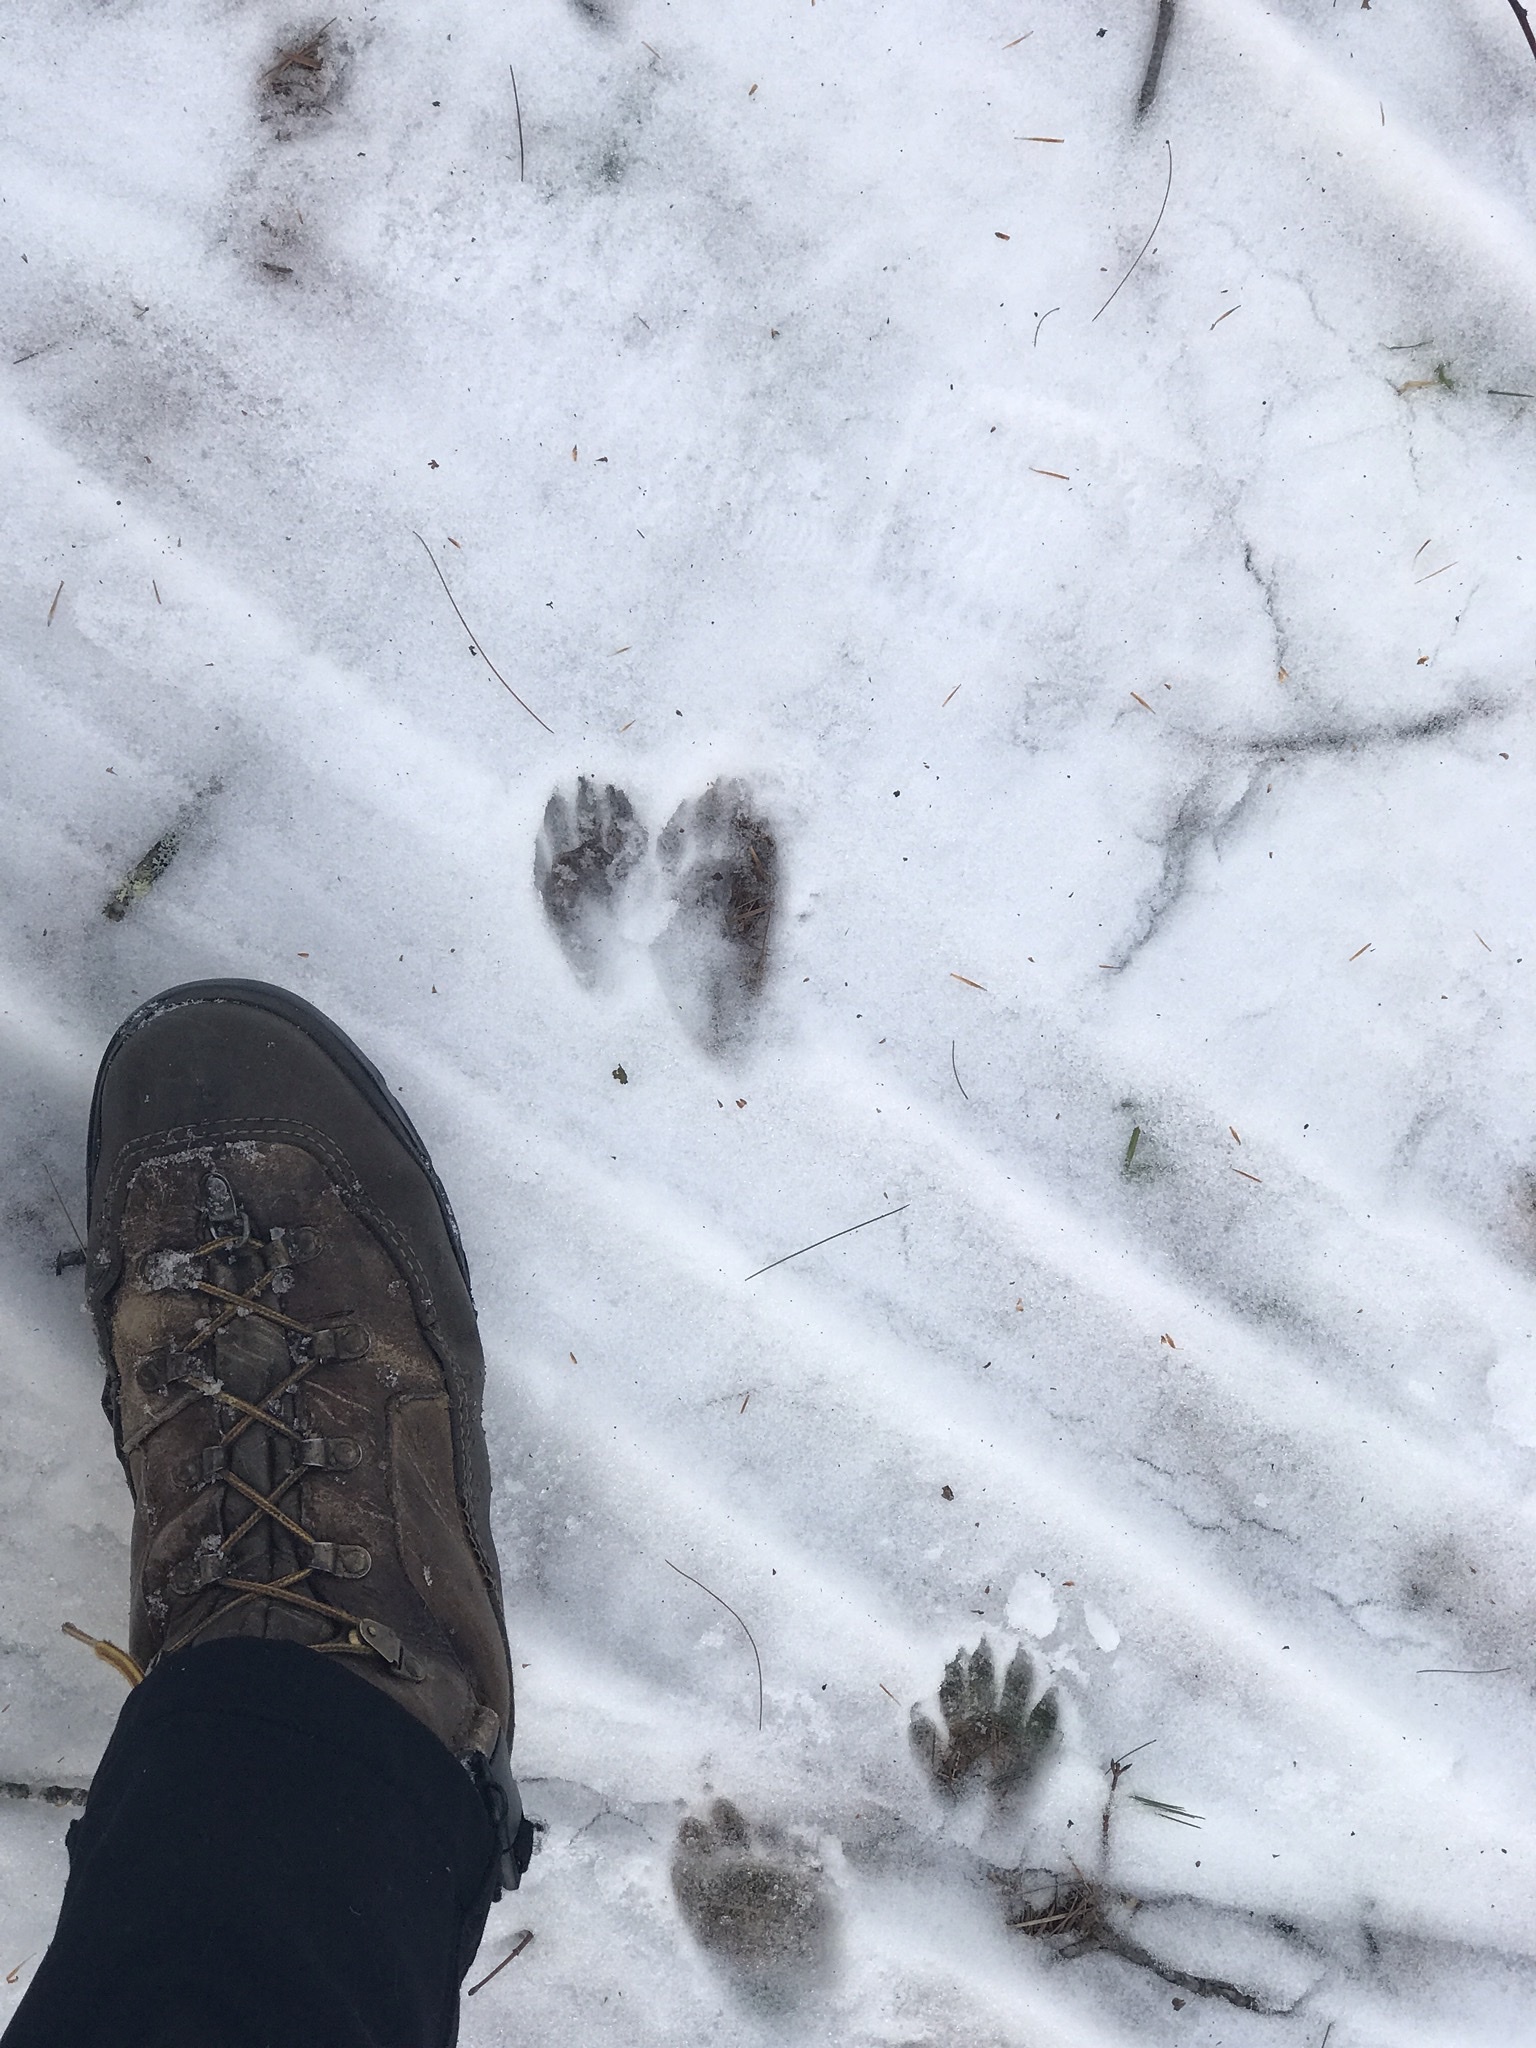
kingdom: Animalia
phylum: Chordata
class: Mammalia
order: Carnivora
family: Procyonidae
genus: Procyon
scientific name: Procyon lotor
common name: Raccoon
